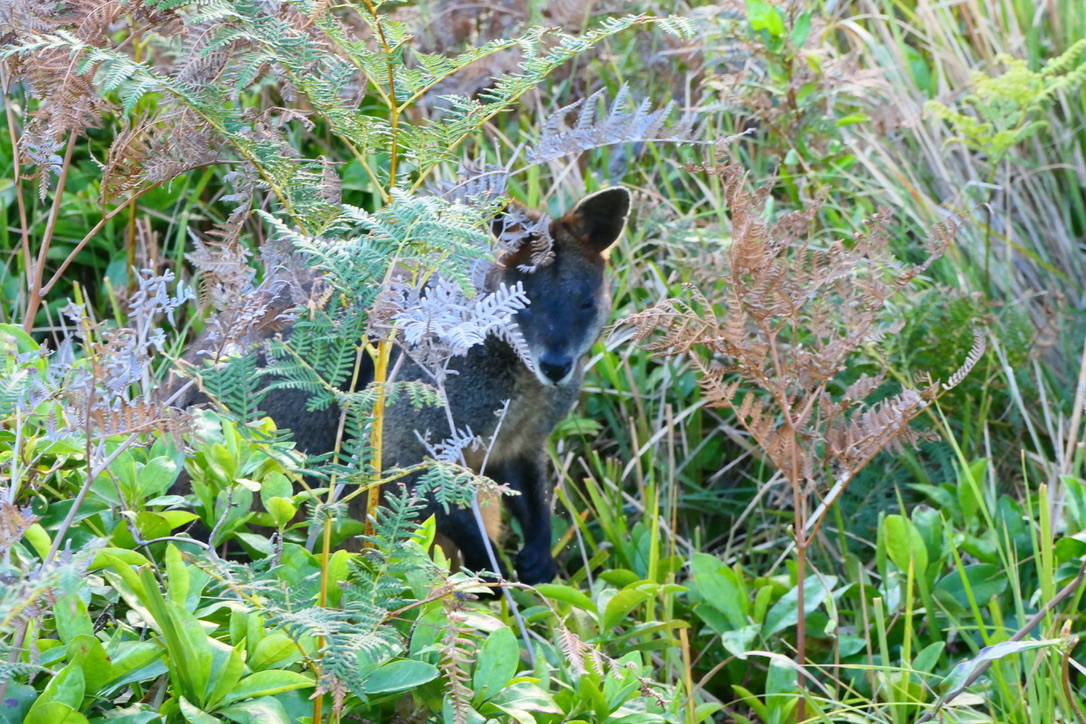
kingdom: Animalia
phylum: Chordata
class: Mammalia
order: Diprotodontia
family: Macropodidae
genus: Wallabia
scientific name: Wallabia bicolor
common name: Swamp wallaby
